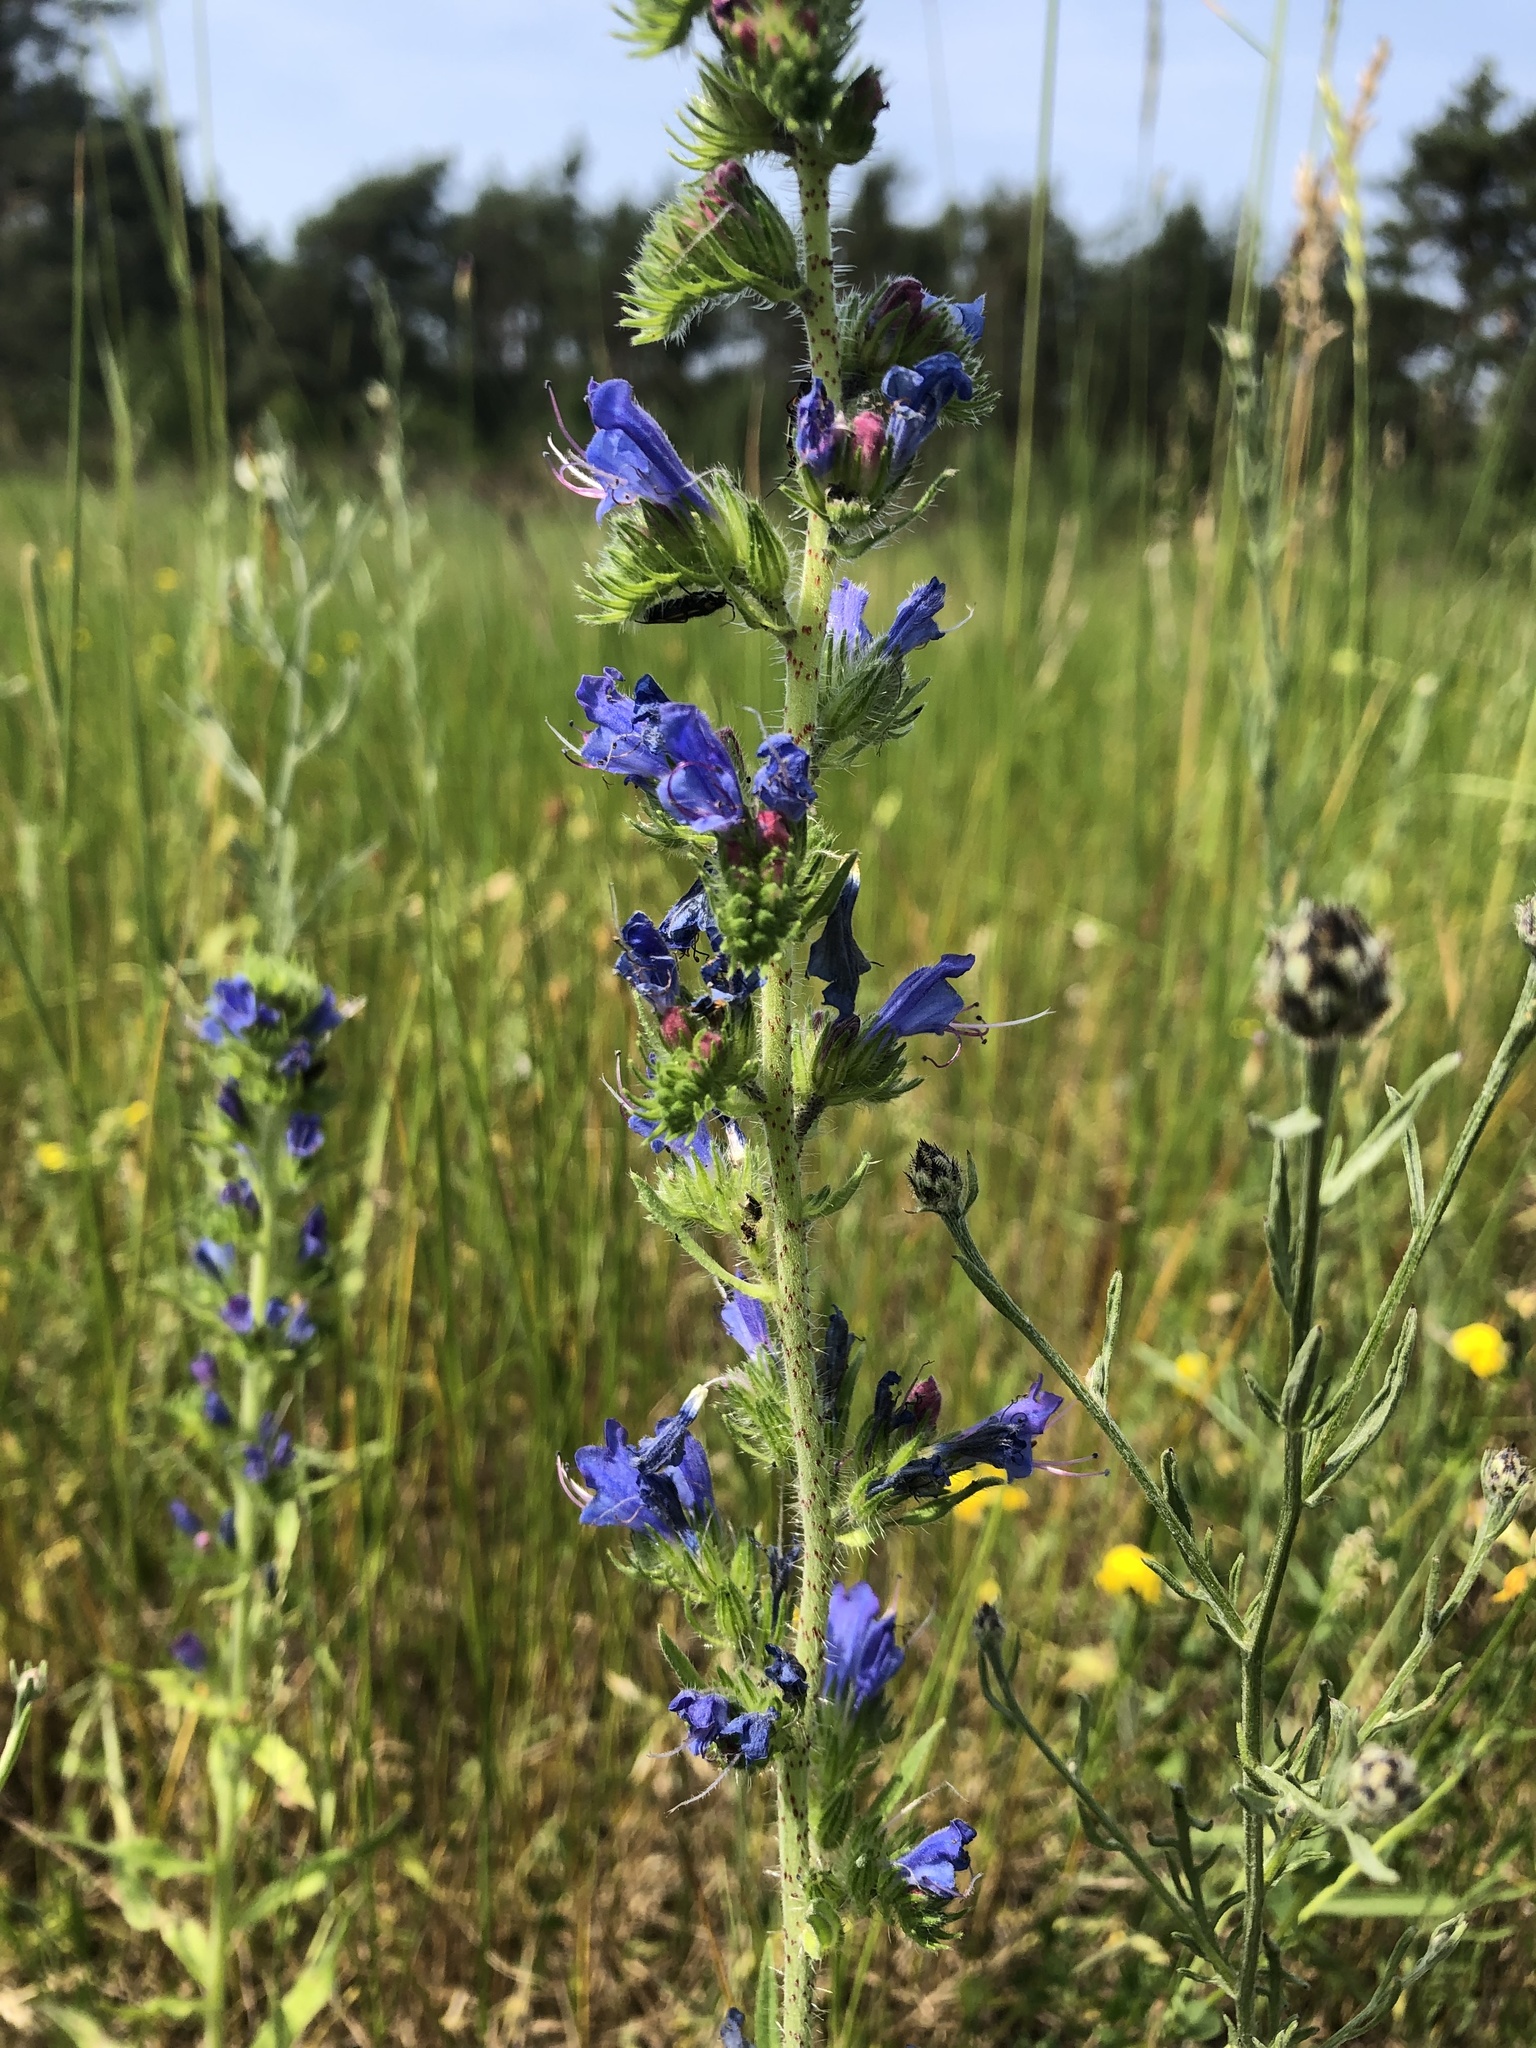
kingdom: Plantae
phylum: Tracheophyta
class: Magnoliopsida
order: Boraginales
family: Boraginaceae
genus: Echium
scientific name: Echium vulgare
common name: Common viper's bugloss
